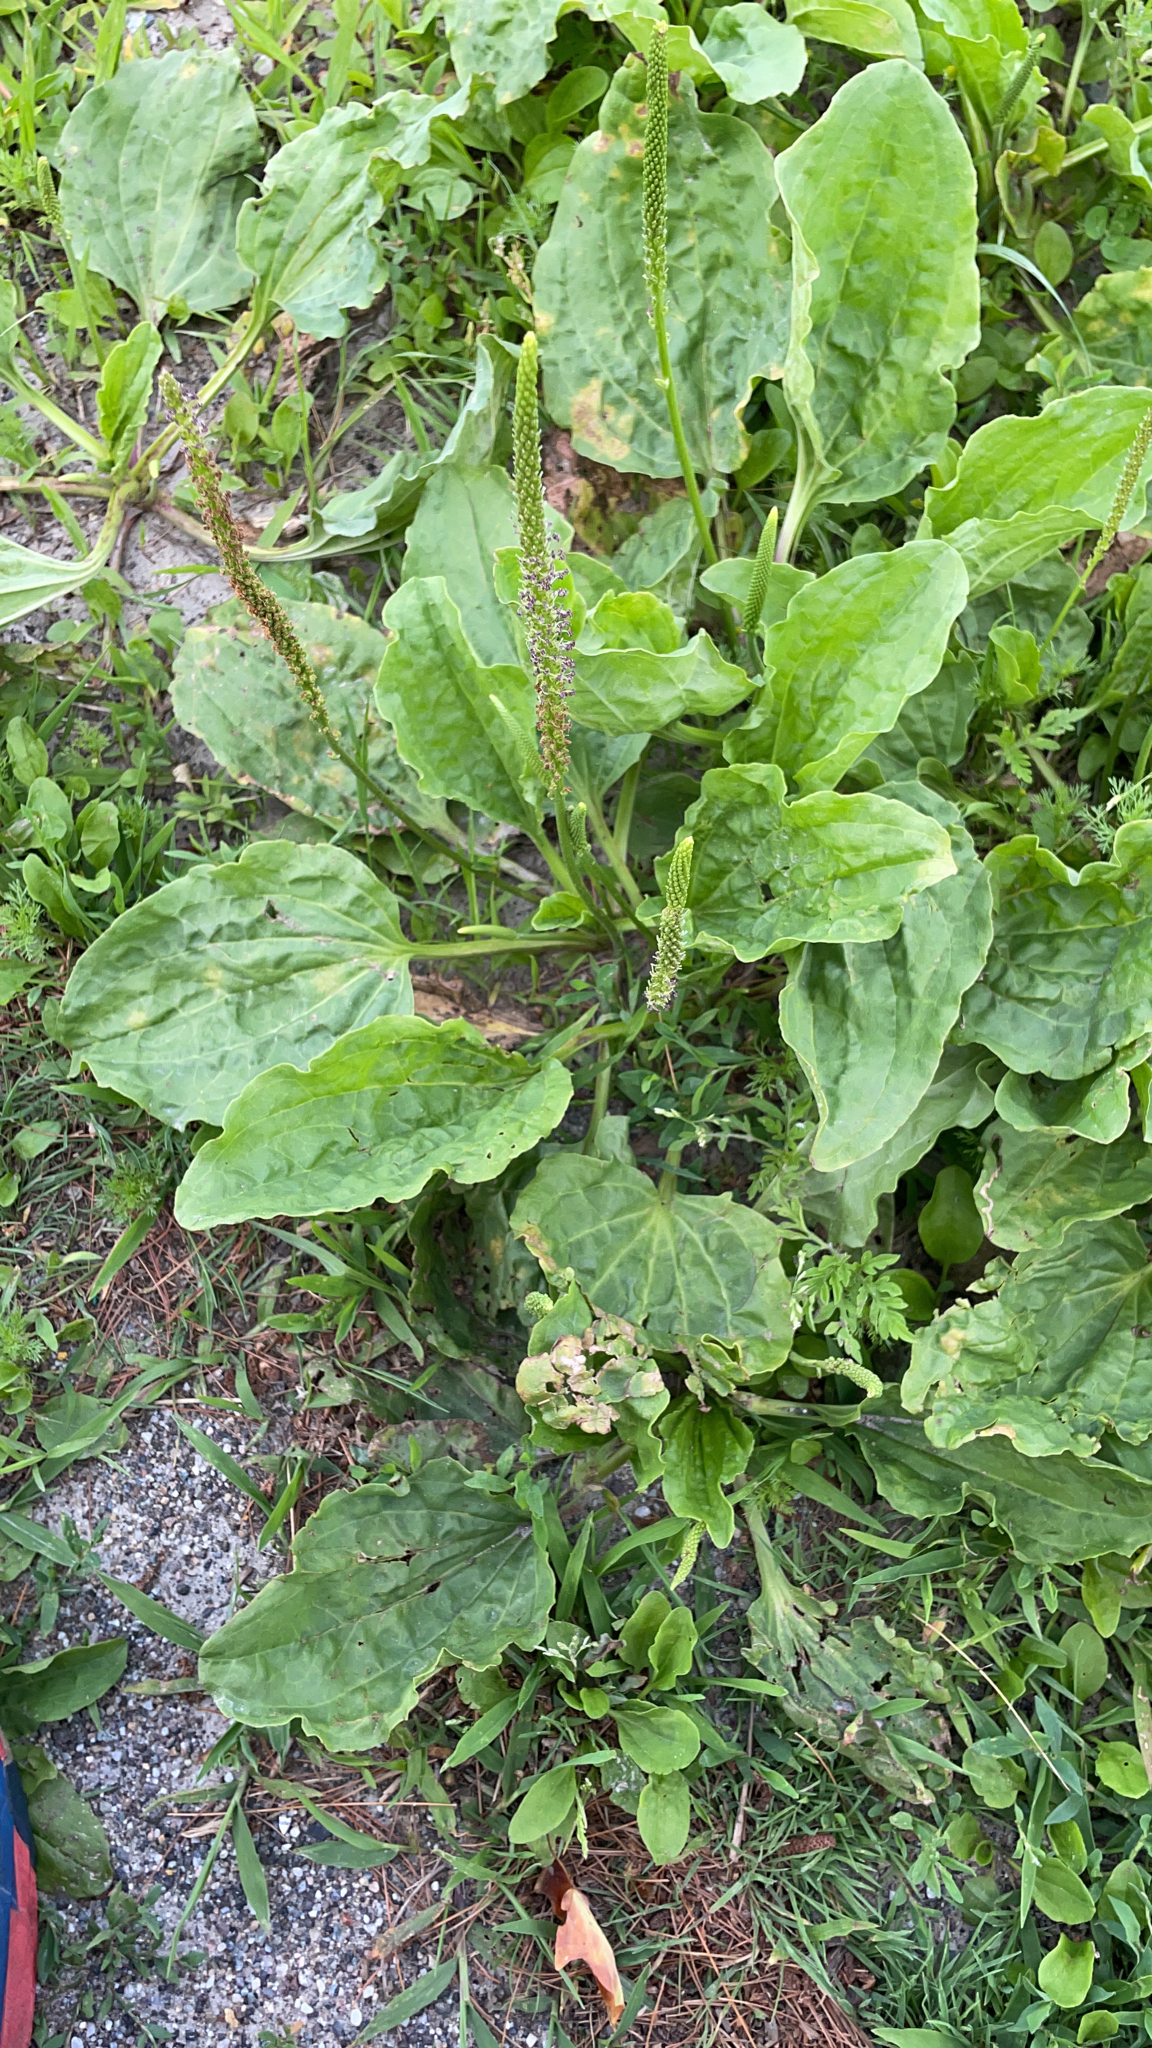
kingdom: Plantae
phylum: Tracheophyta
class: Magnoliopsida
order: Lamiales
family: Plantaginaceae
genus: Plantago
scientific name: Plantago major
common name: Common plantain
